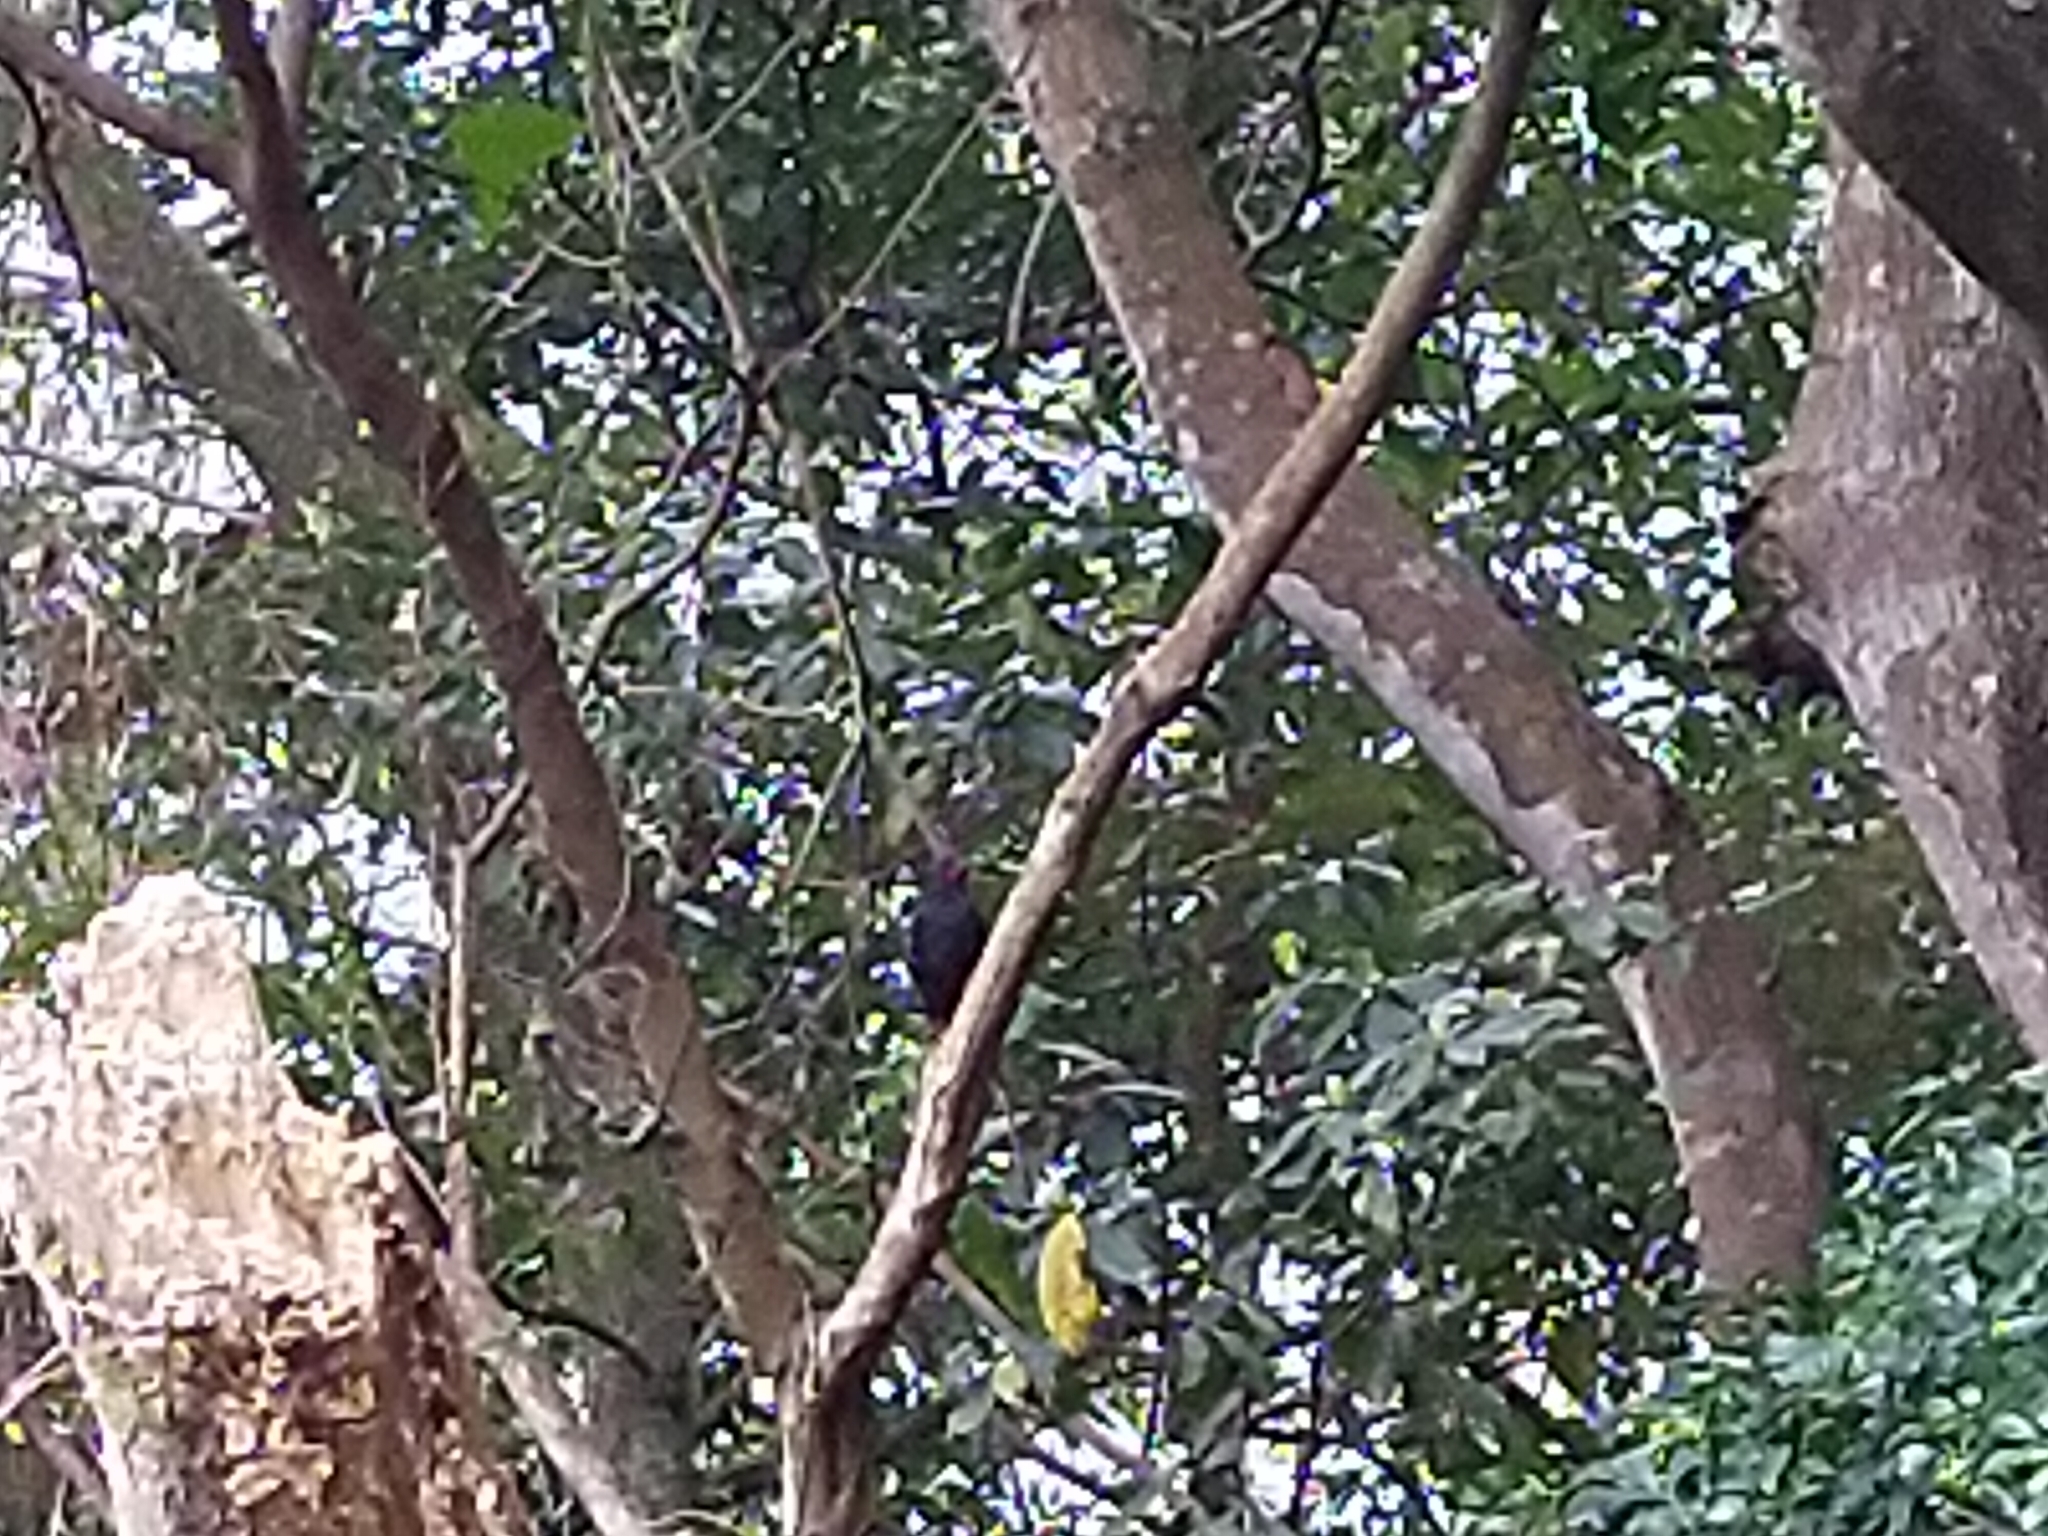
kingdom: Animalia
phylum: Chordata
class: Aves
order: Passeriformes
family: Pycnonotidae
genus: Hypsipetes
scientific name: Hypsipetes leucocephalus
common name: Black bulbul
